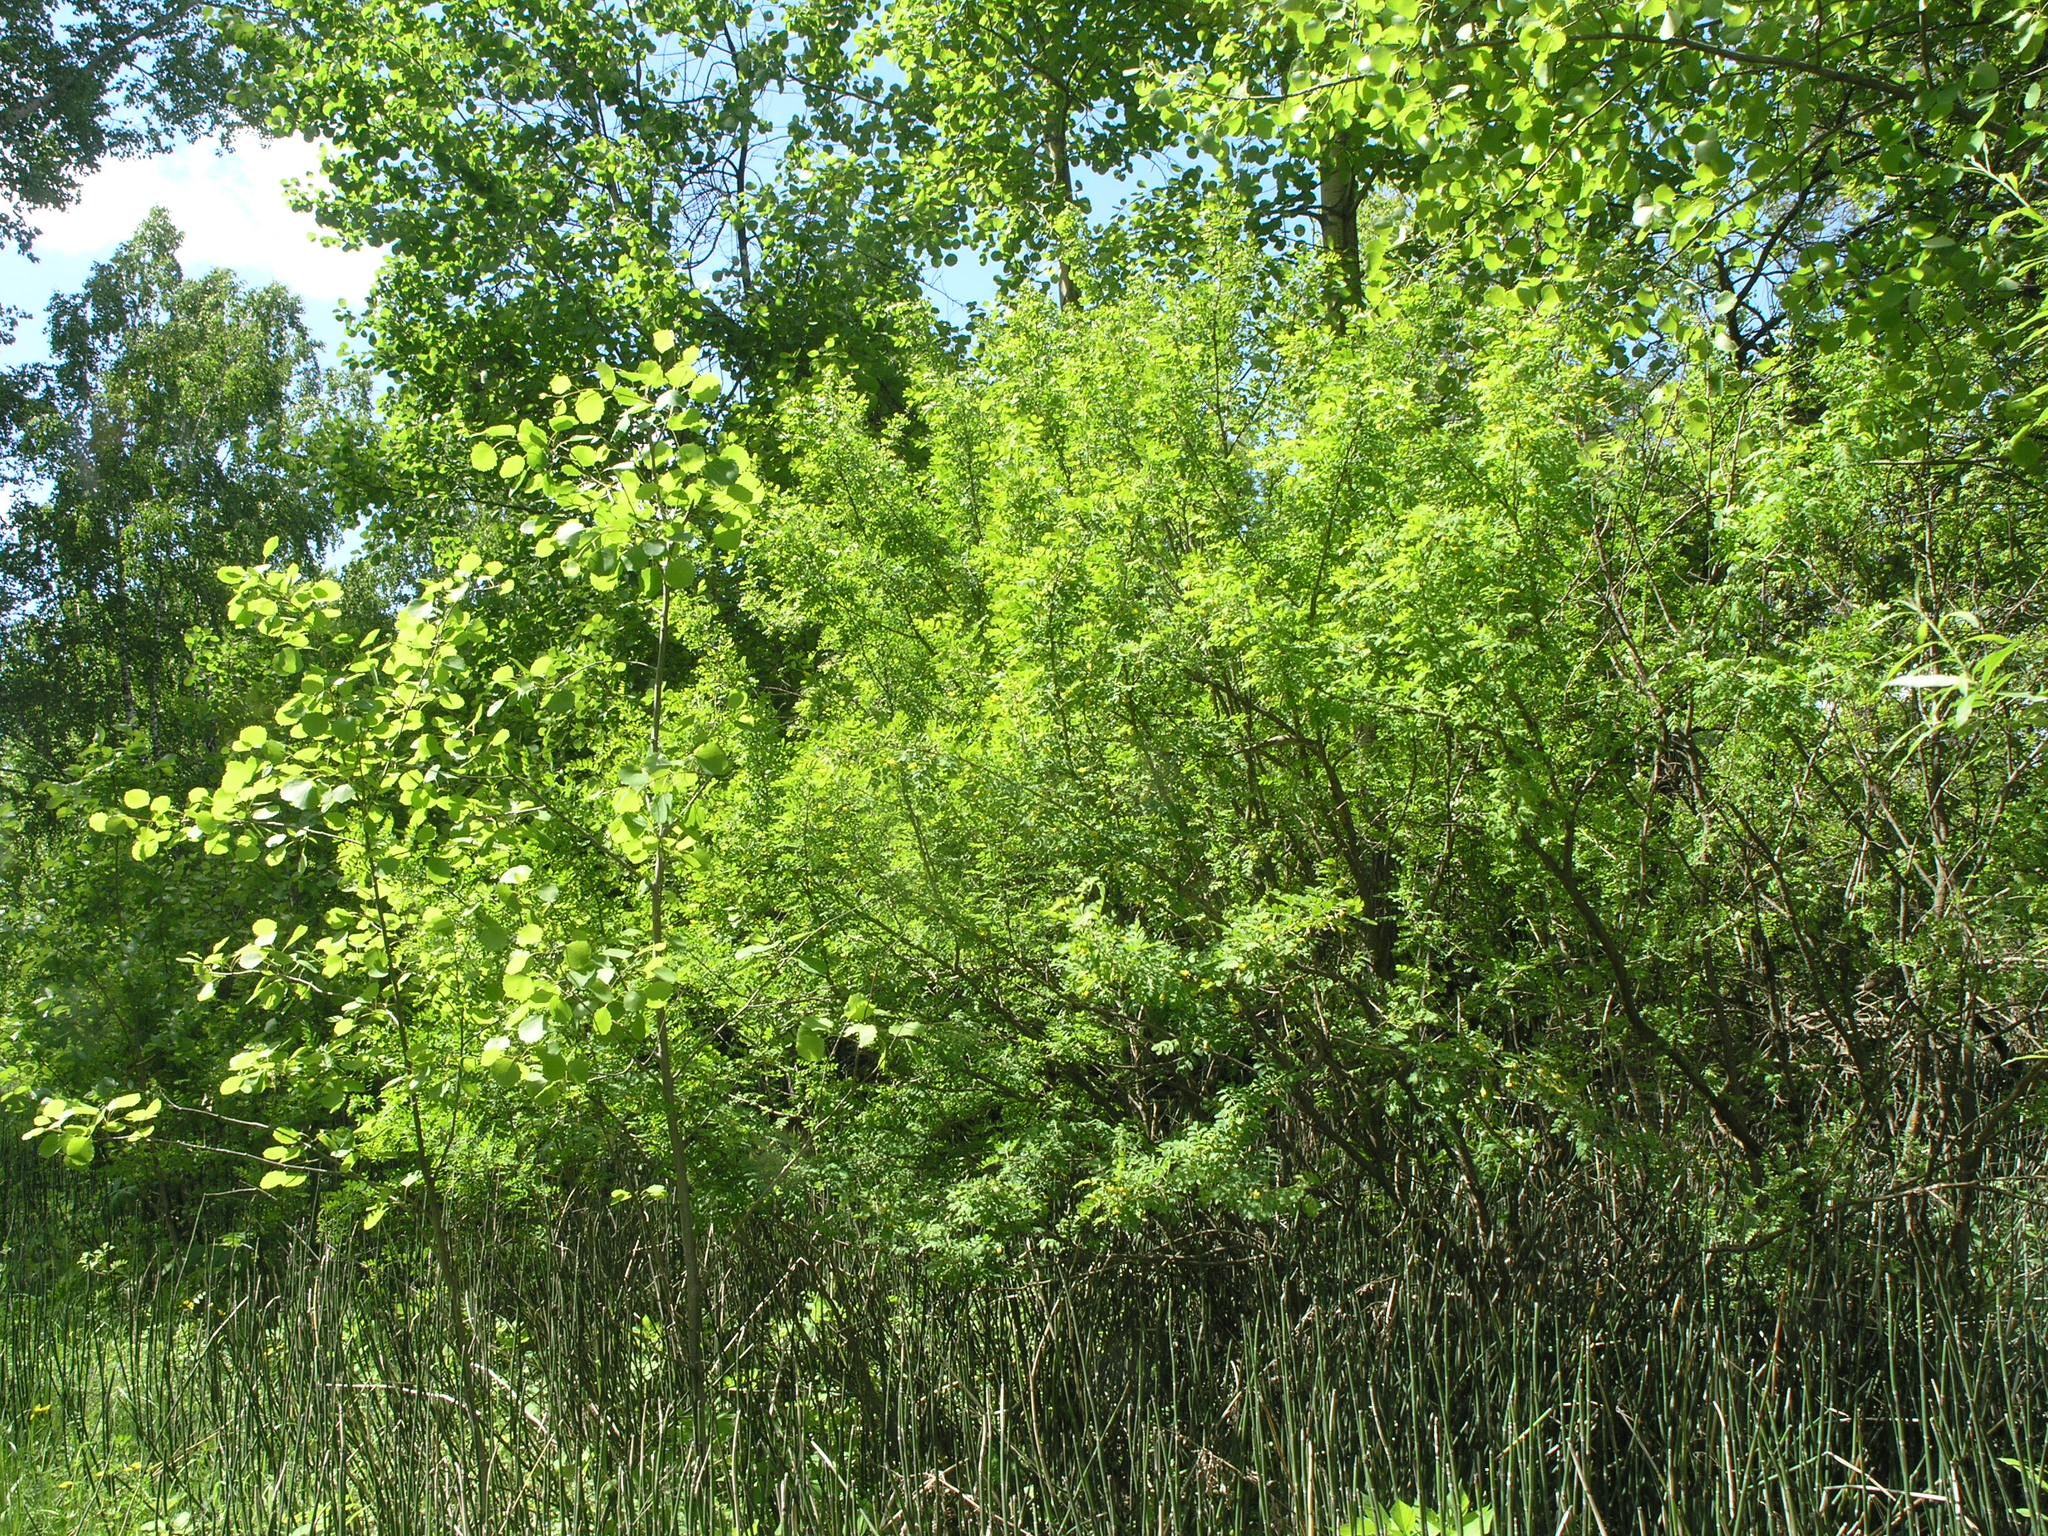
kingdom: Plantae
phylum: Tracheophyta
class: Polypodiopsida
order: Equisetales
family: Equisetaceae
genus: Equisetum
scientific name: Equisetum hyemale
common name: Rough horsetail
